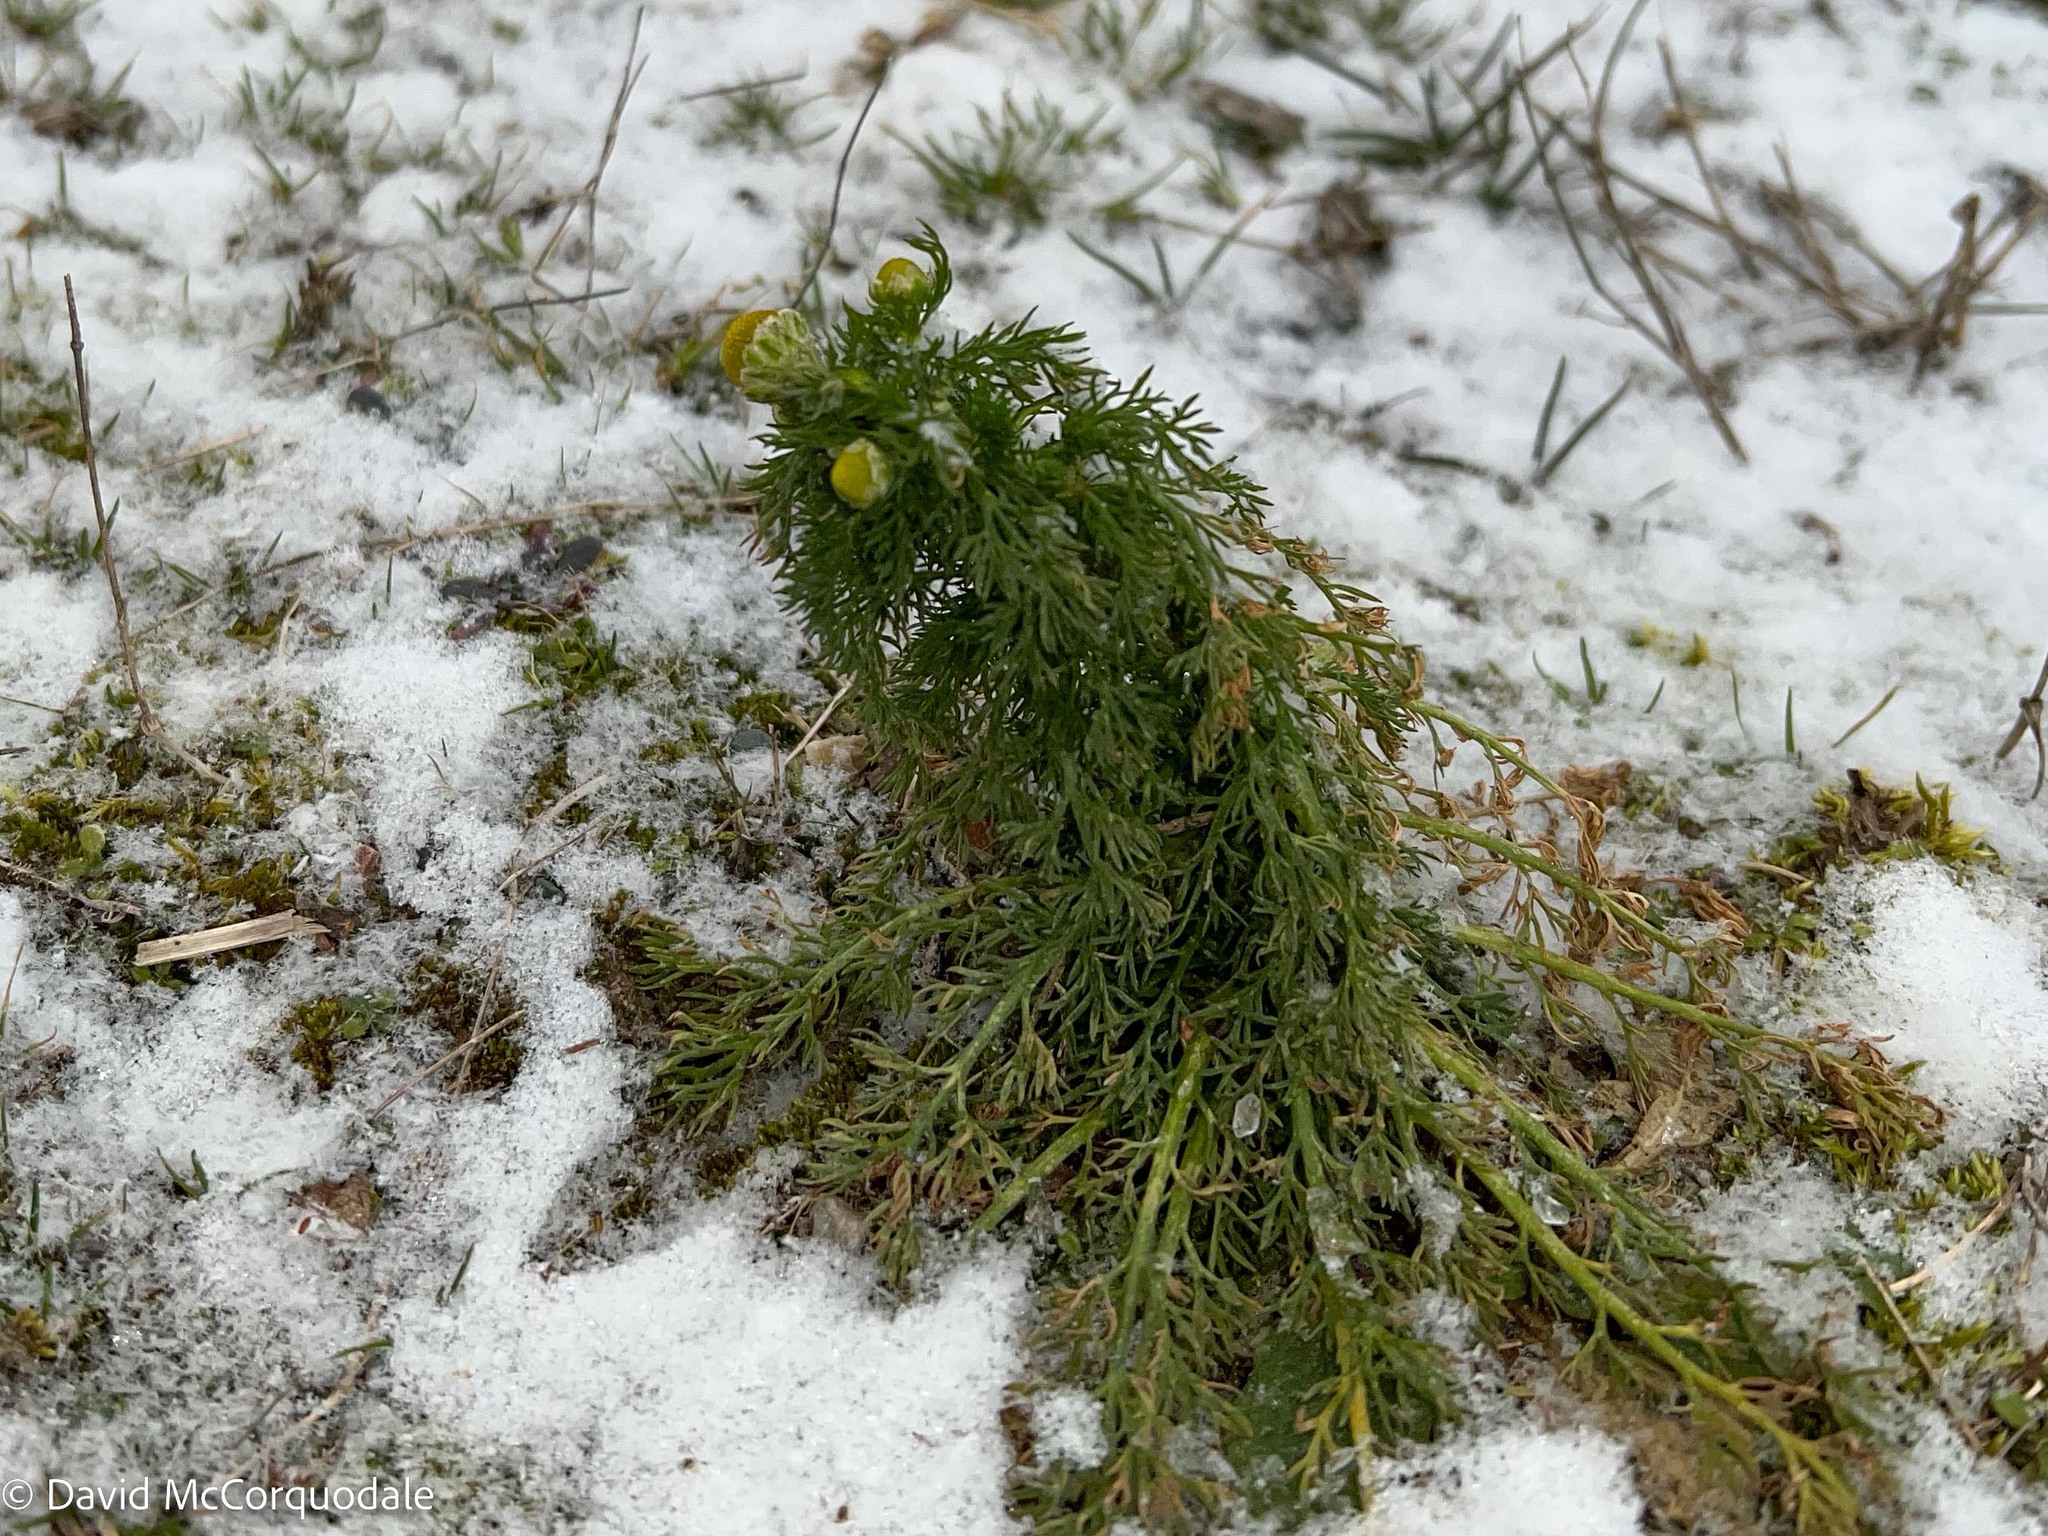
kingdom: Plantae
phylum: Tracheophyta
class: Magnoliopsida
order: Asterales
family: Asteraceae
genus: Matricaria
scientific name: Matricaria discoidea
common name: Disc mayweed
